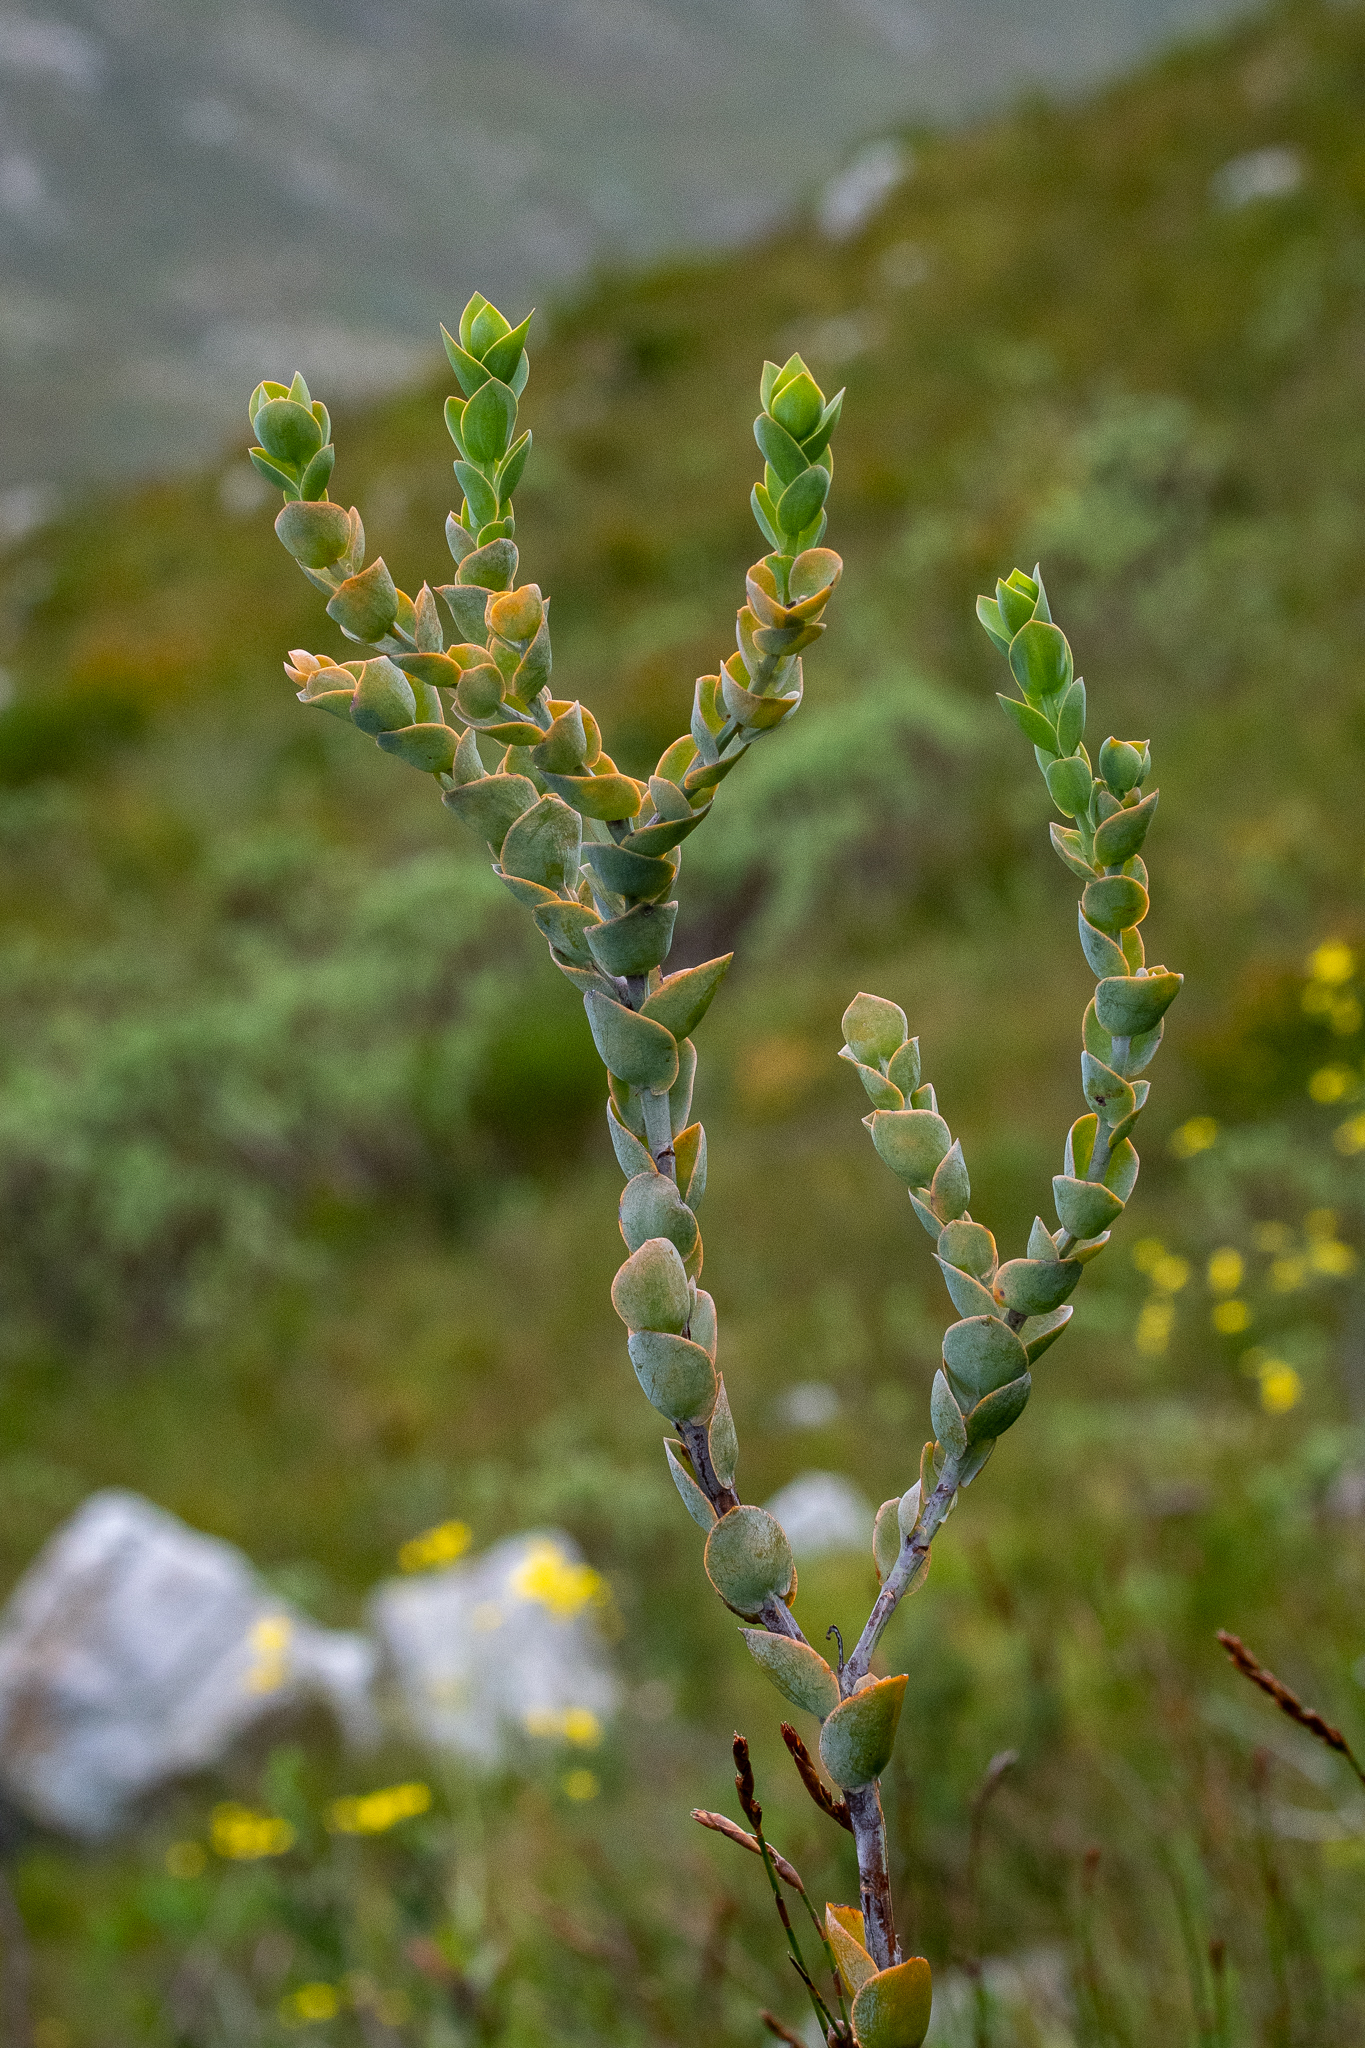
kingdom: Plantae
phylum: Tracheophyta
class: Magnoliopsida
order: Santalales
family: Thesiaceae
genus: Thesium
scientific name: Thesium euphorbioides
